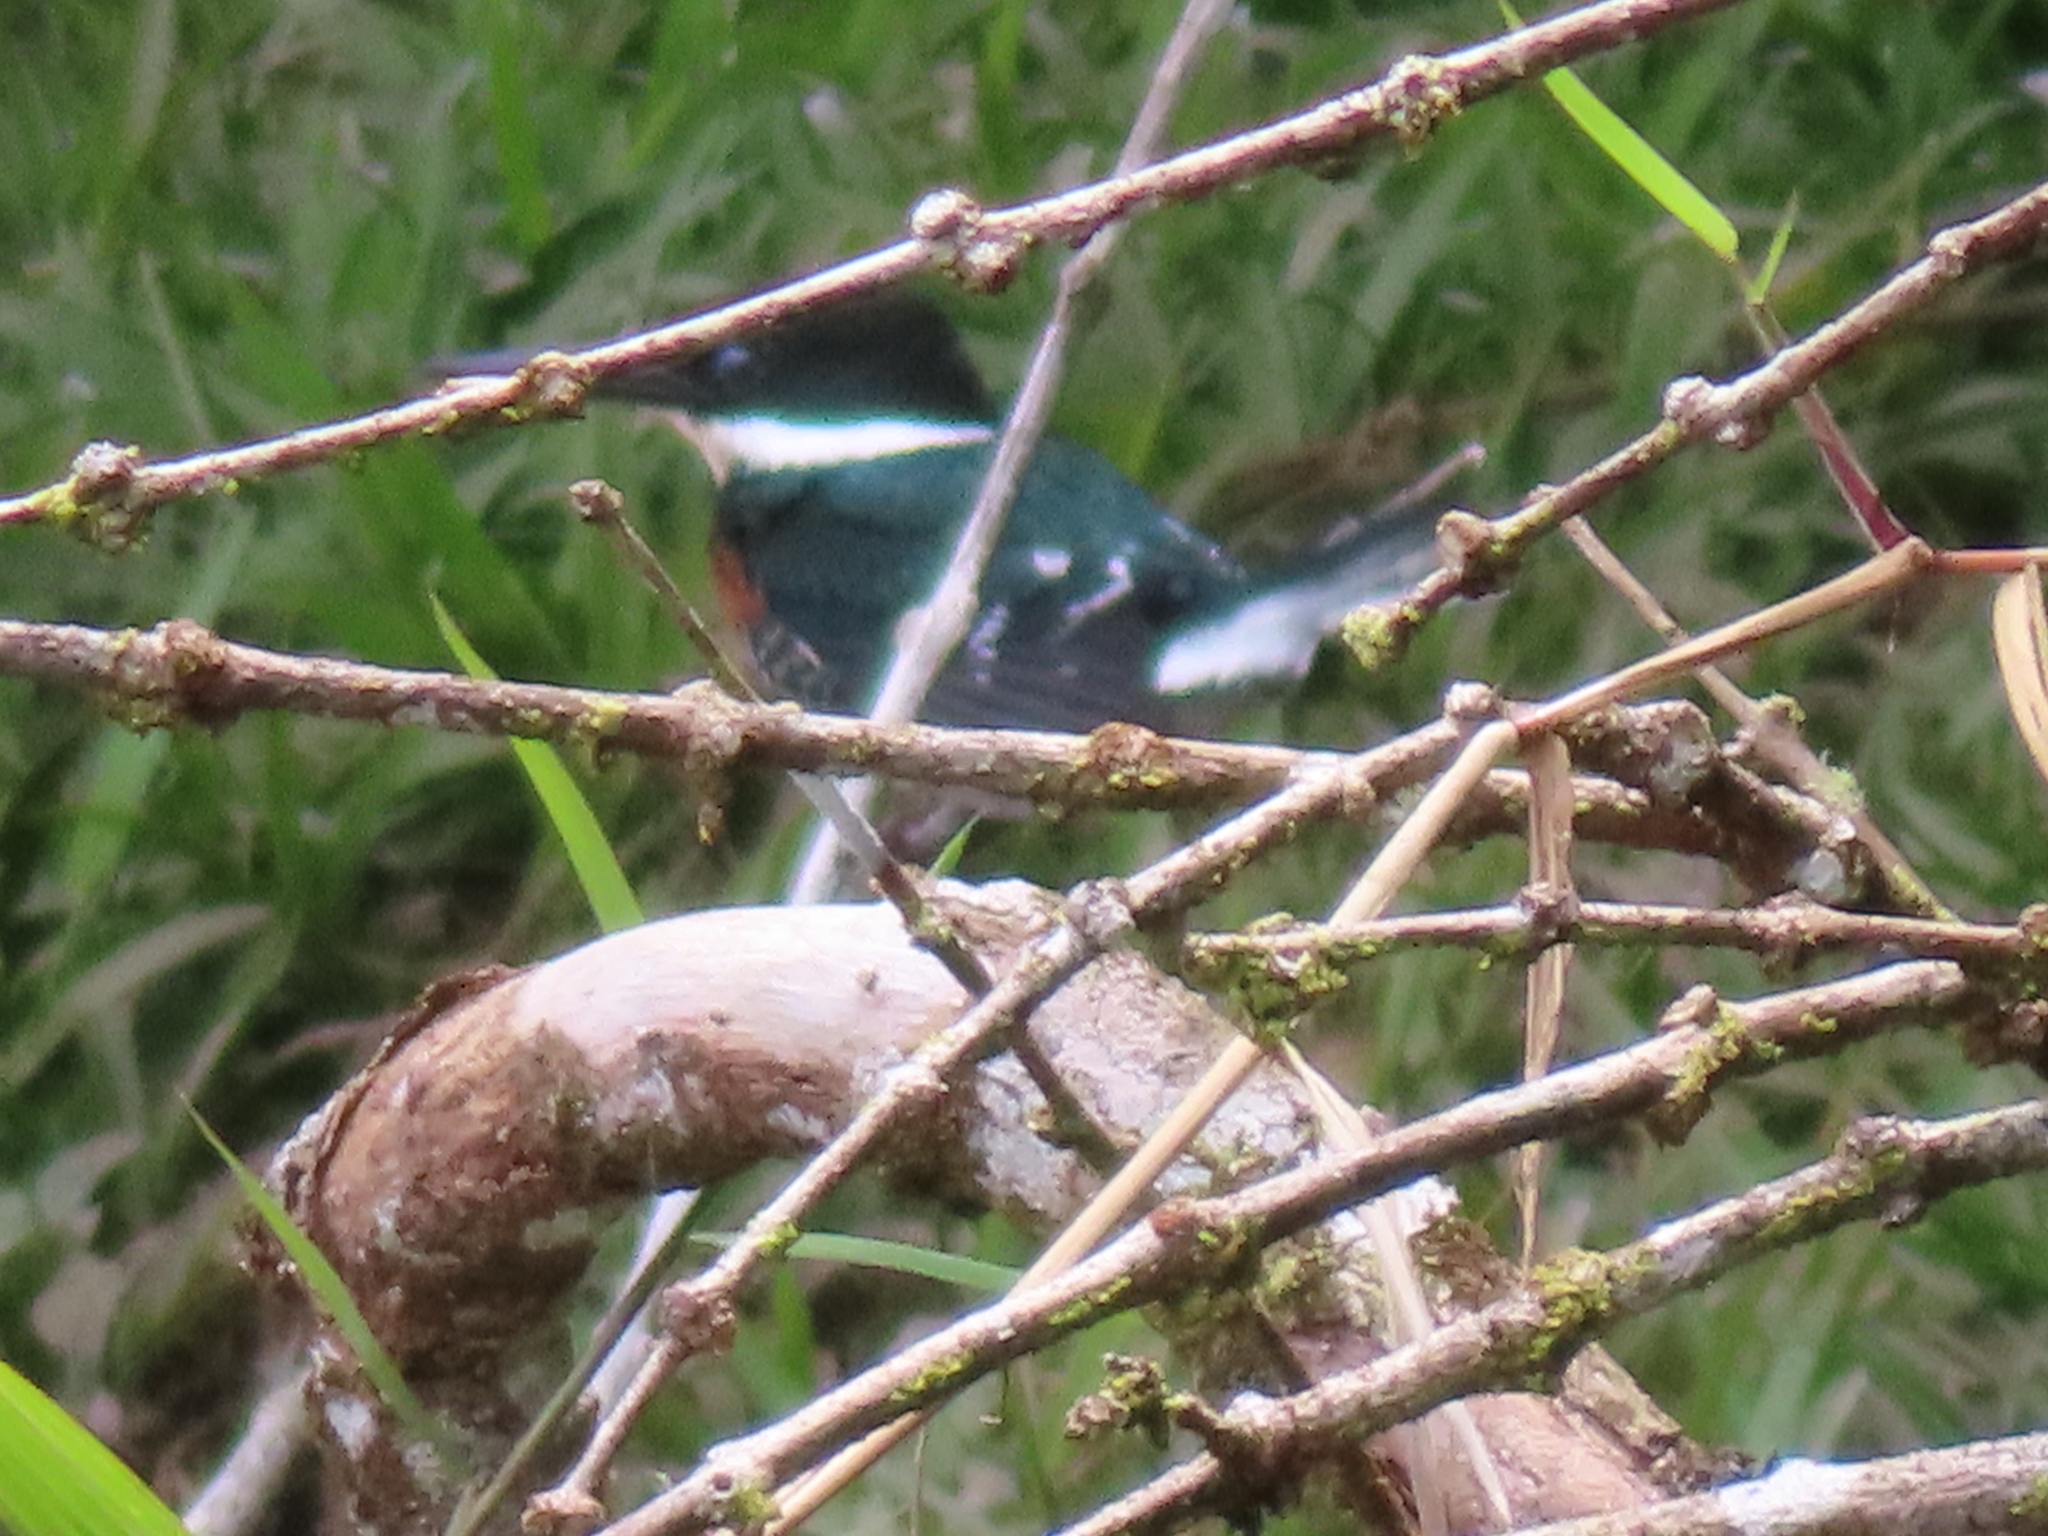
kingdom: Animalia
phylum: Chordata
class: Aves
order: Coraciiformes
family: Alcedinidae
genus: Chloroceryle
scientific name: Chloroceryle americana
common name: Green kingfisher
